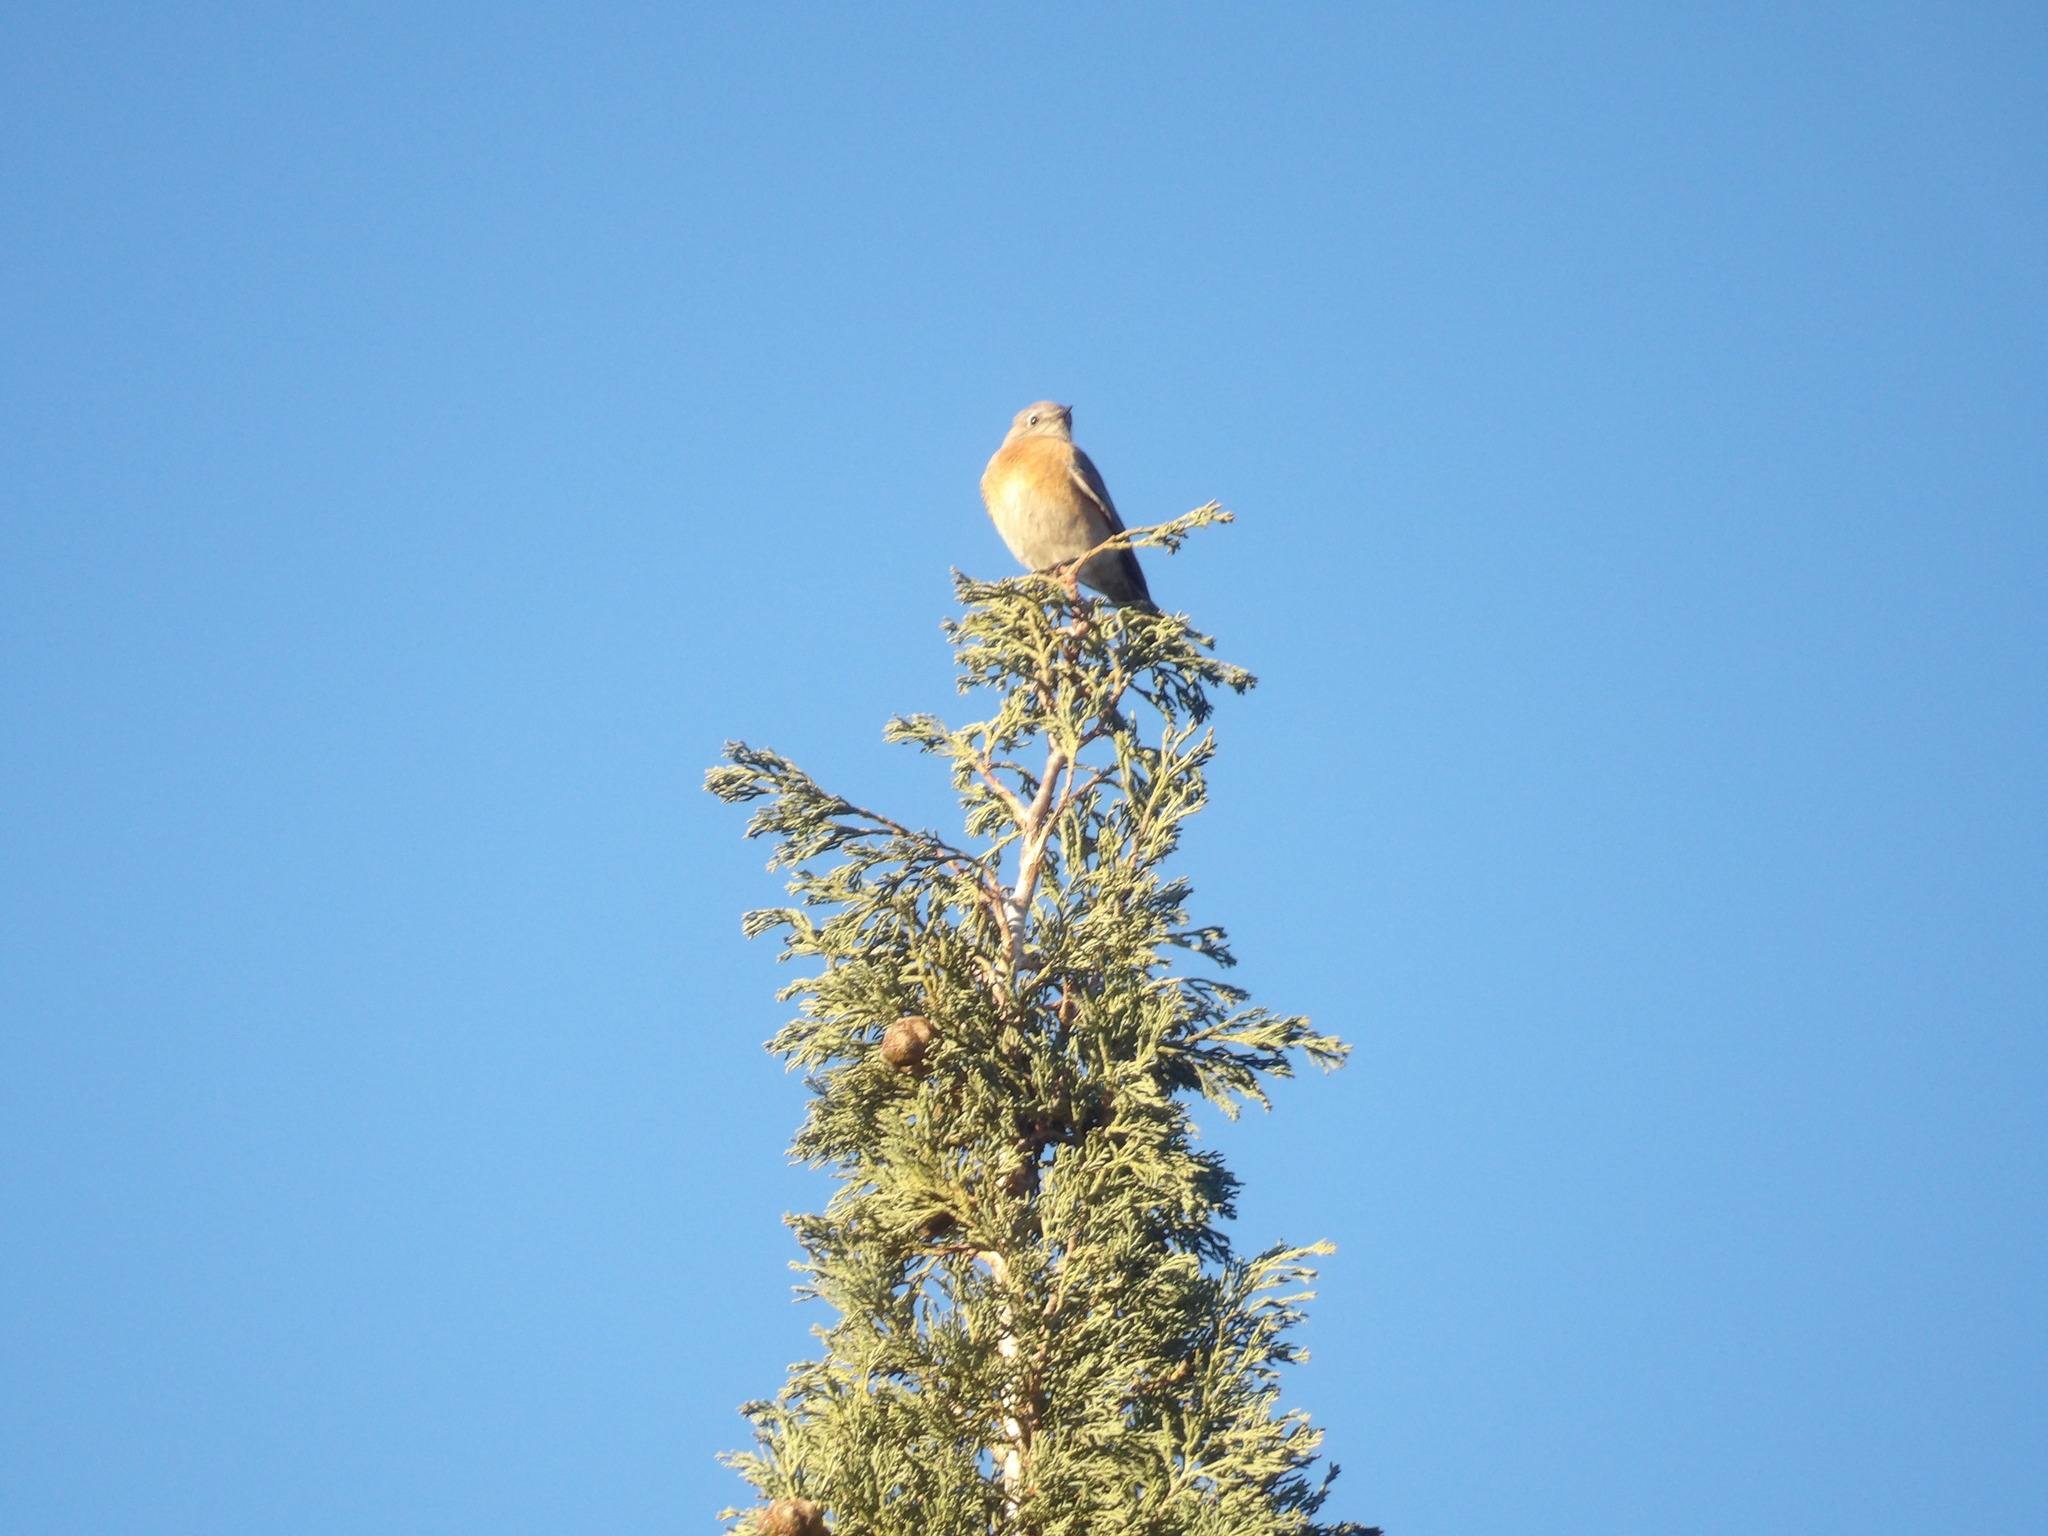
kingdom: Animalia
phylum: Chordata
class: Aves
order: Passeriformes
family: Turdidae
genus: Sialia
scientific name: Sialia mexicana
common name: Western bluebird
